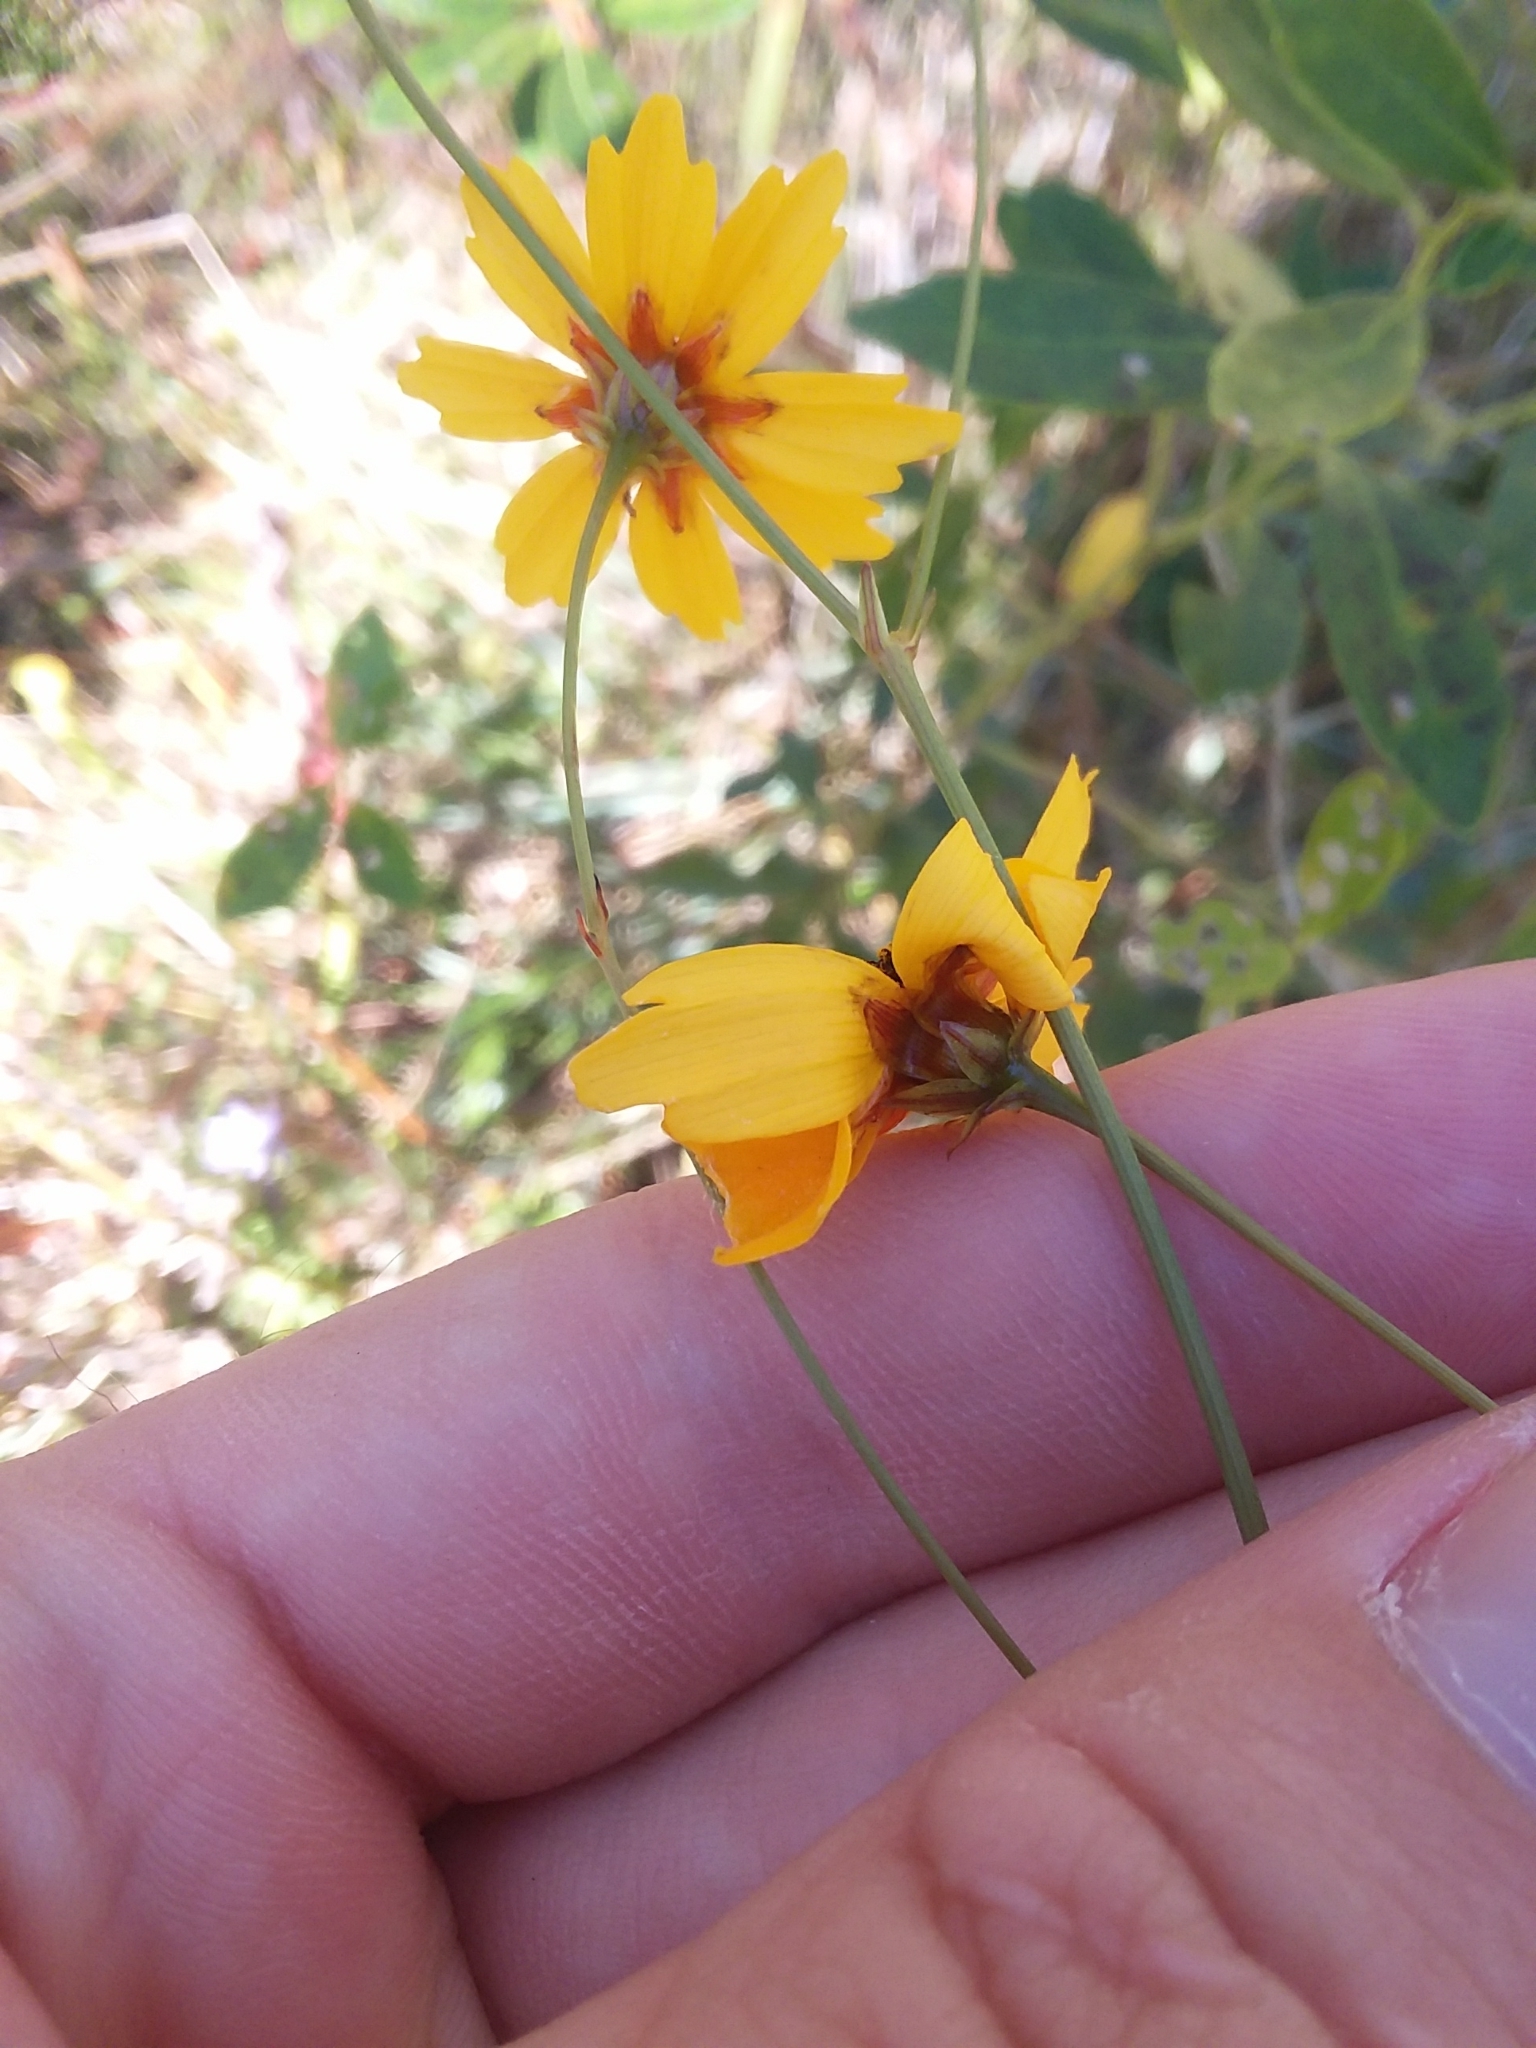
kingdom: Plantae
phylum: Tracheophyta
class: Magnoliopsida
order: Asterales
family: Asteraceae
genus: Coreopsis
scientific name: Coreopsis gladiata
